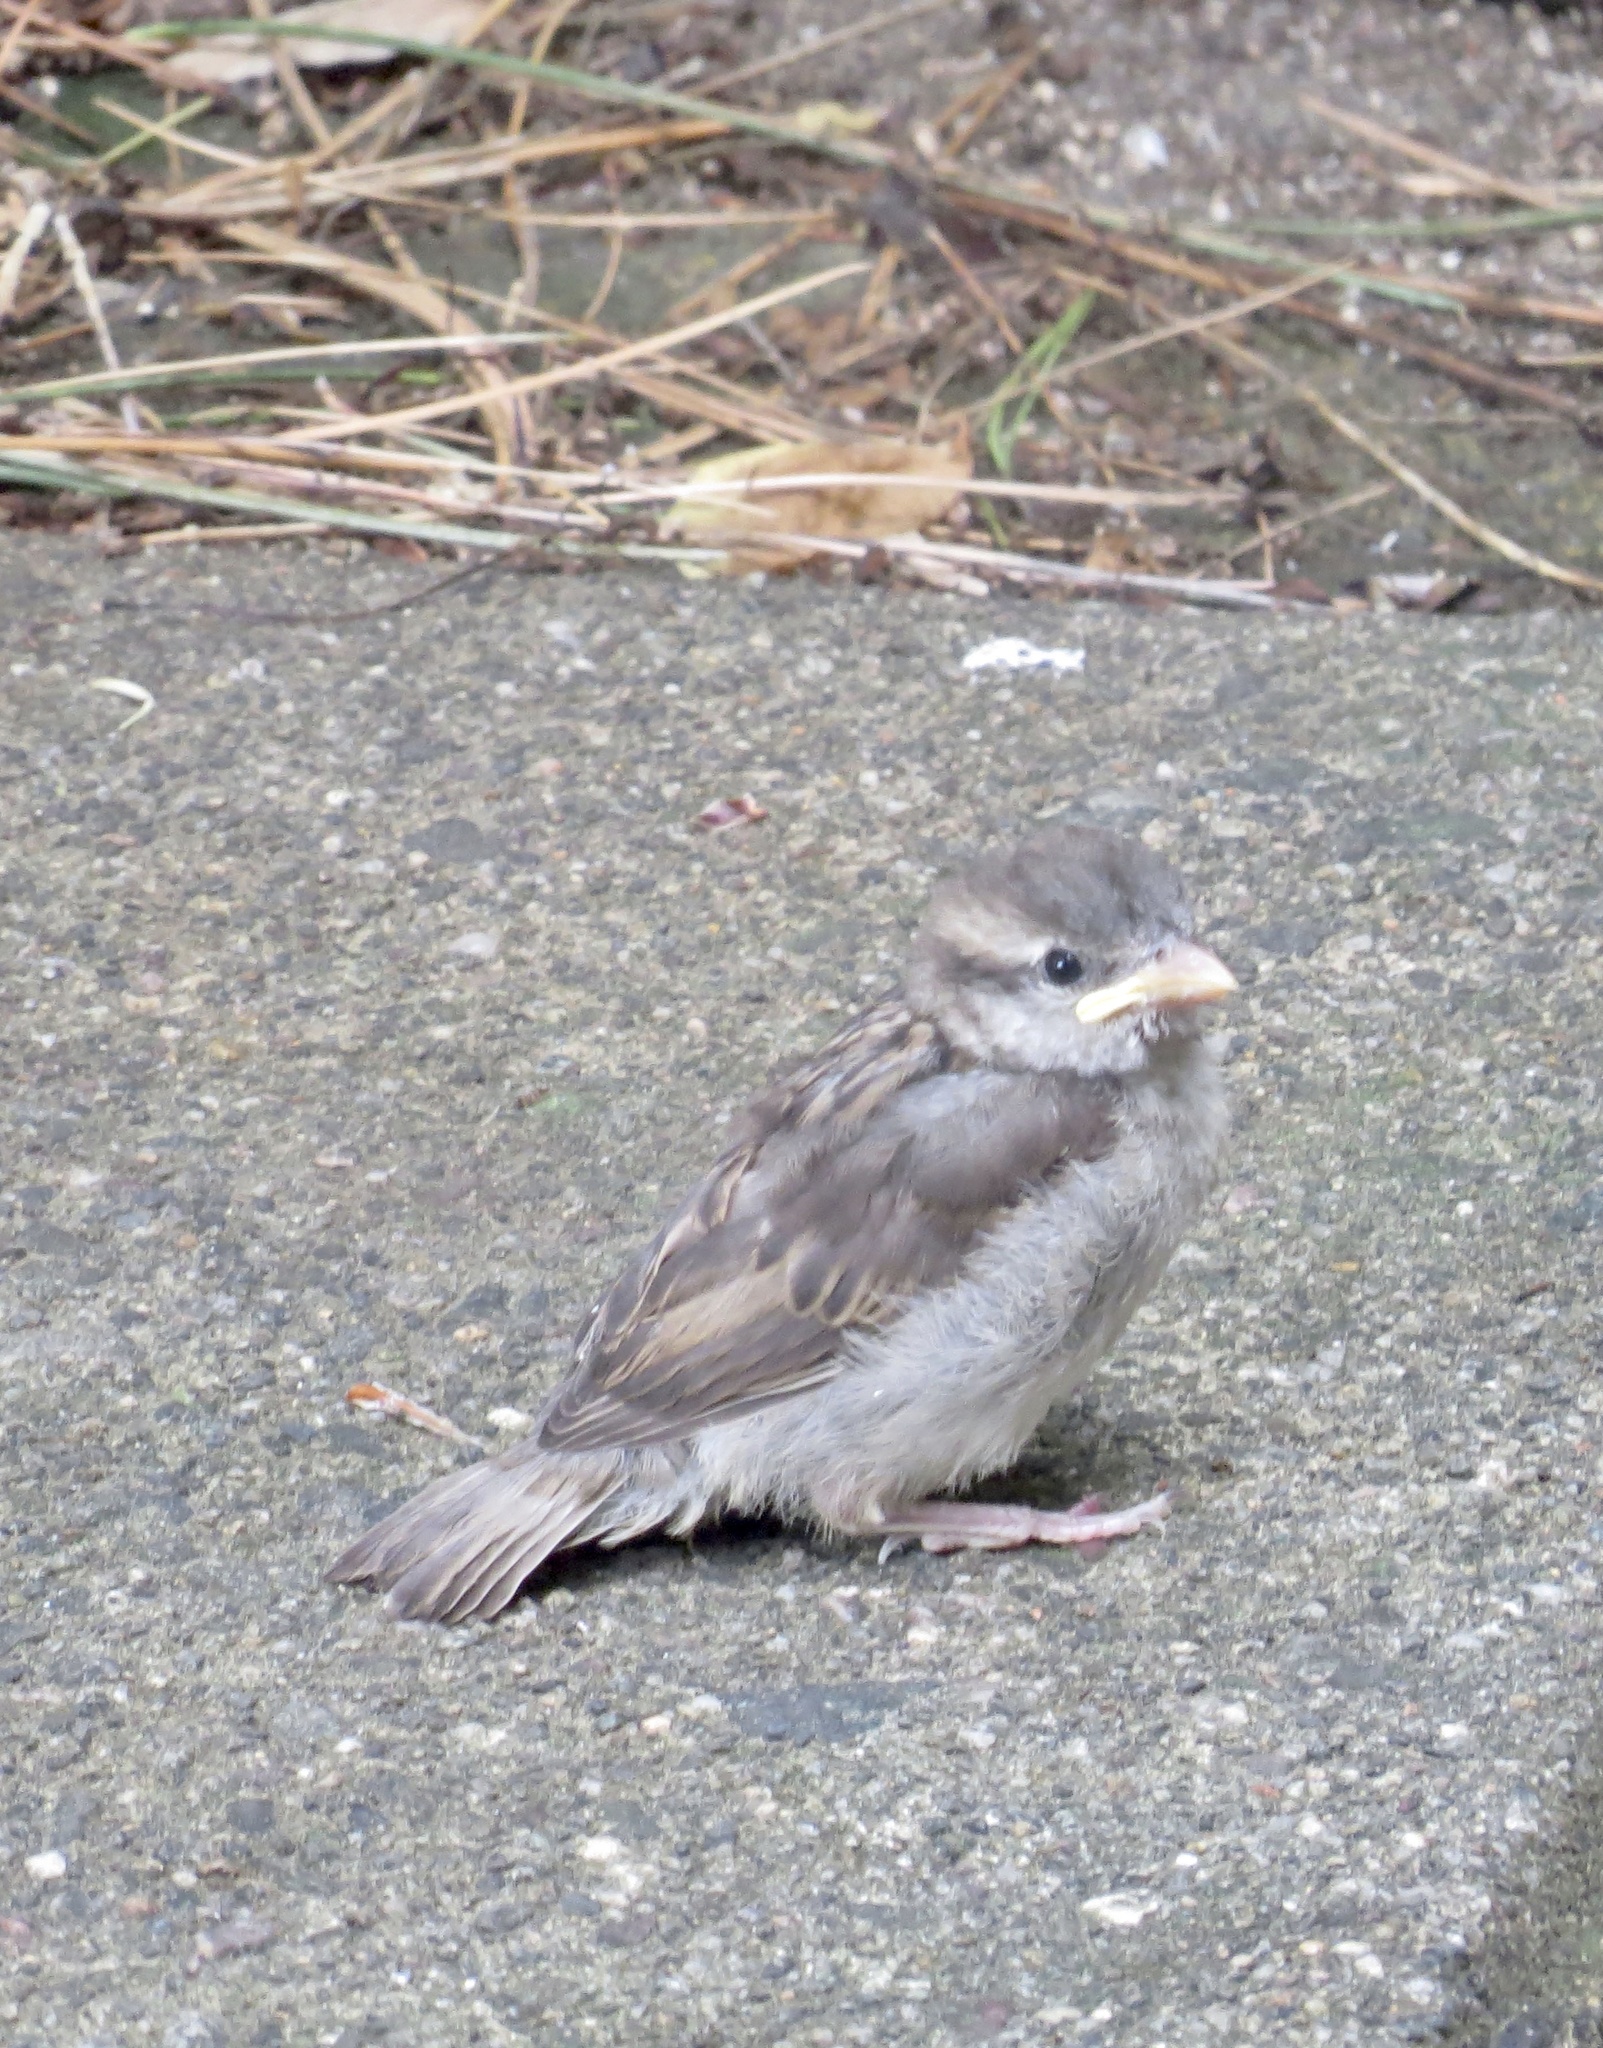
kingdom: Animalia
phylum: Chordata
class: Aves
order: Passeriformes
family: Turdidae
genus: Turdus
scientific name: Turdus migratorius
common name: American robin
